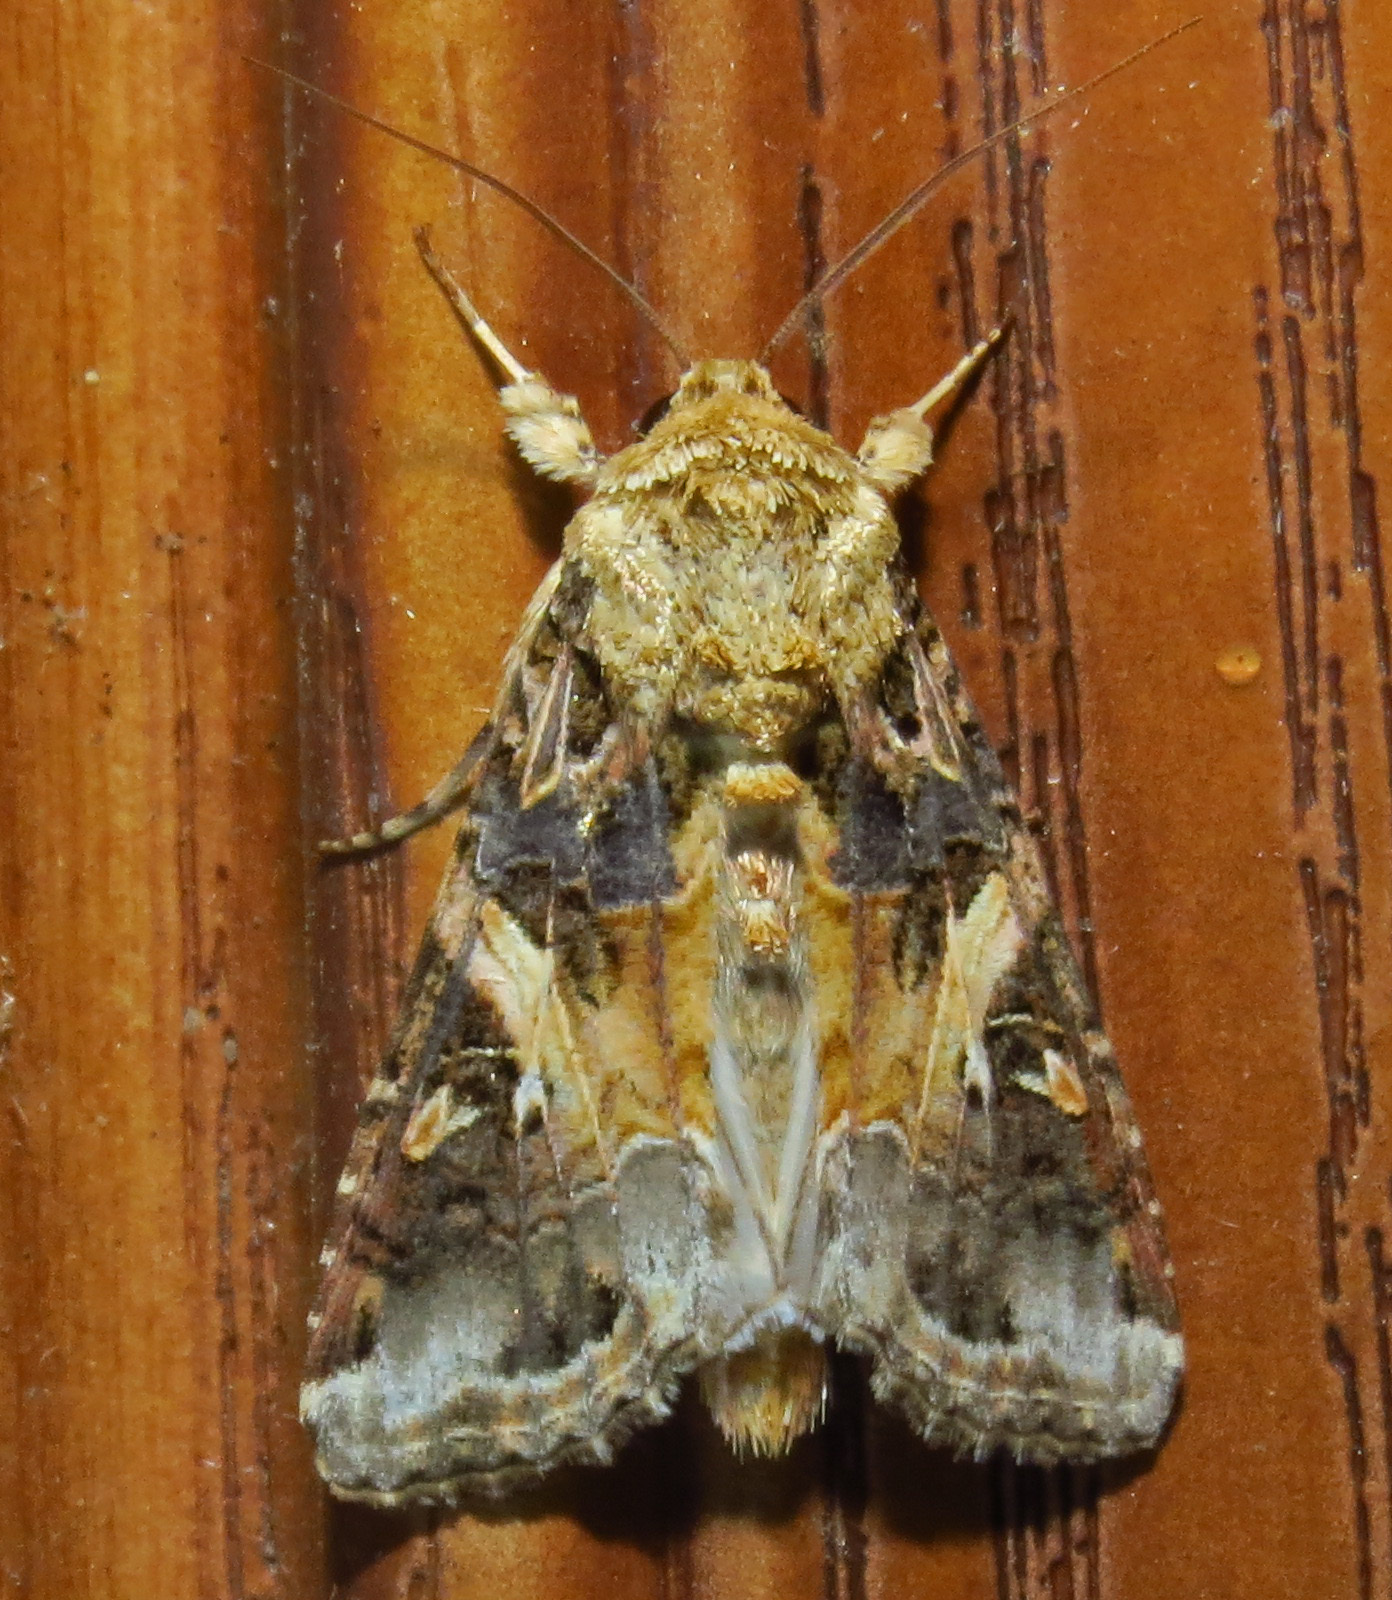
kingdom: Animalia
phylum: Arthropoda
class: Insecta
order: Lepidoptera
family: Noctuidae
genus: Spodoptera
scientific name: Spodoptera ornithogalli
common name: Yellow-striped armyworm
